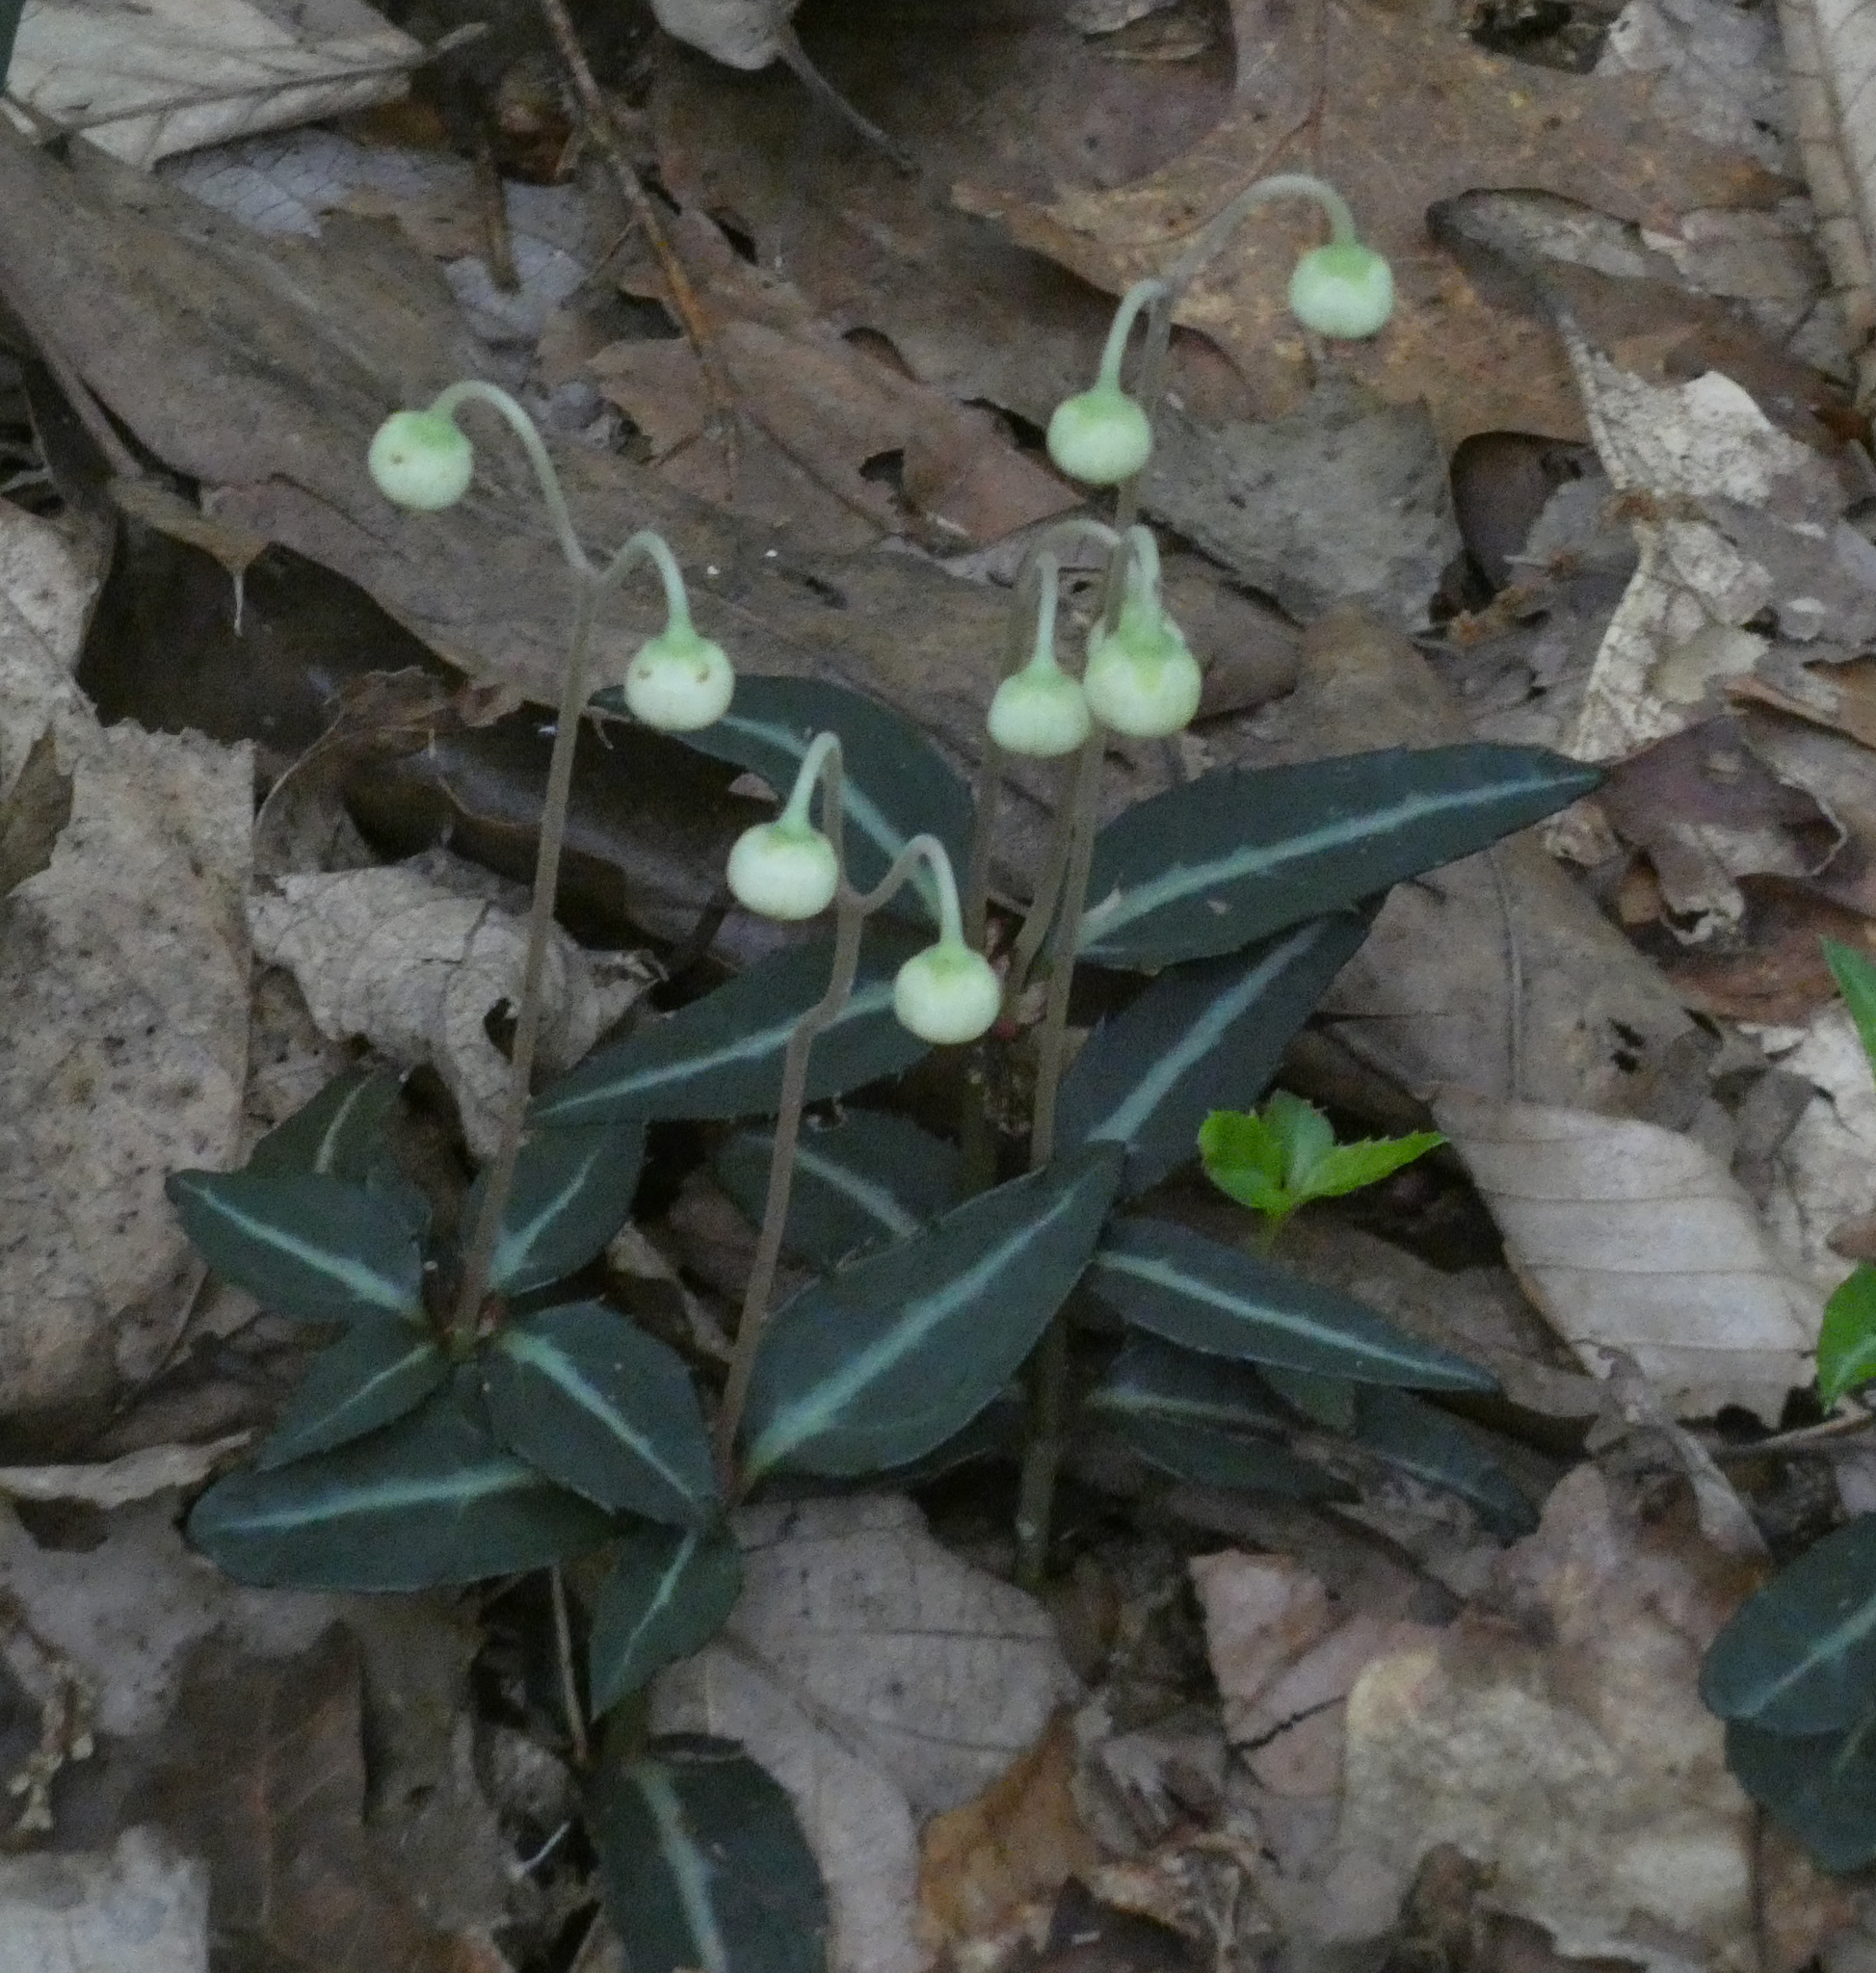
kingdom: Plantae
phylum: Tracheophyta
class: Magnoliopsida
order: Ericales
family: Ericaceae
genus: Chimaphila
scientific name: Chimaphila maculata
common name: Spotted pipsissewa
